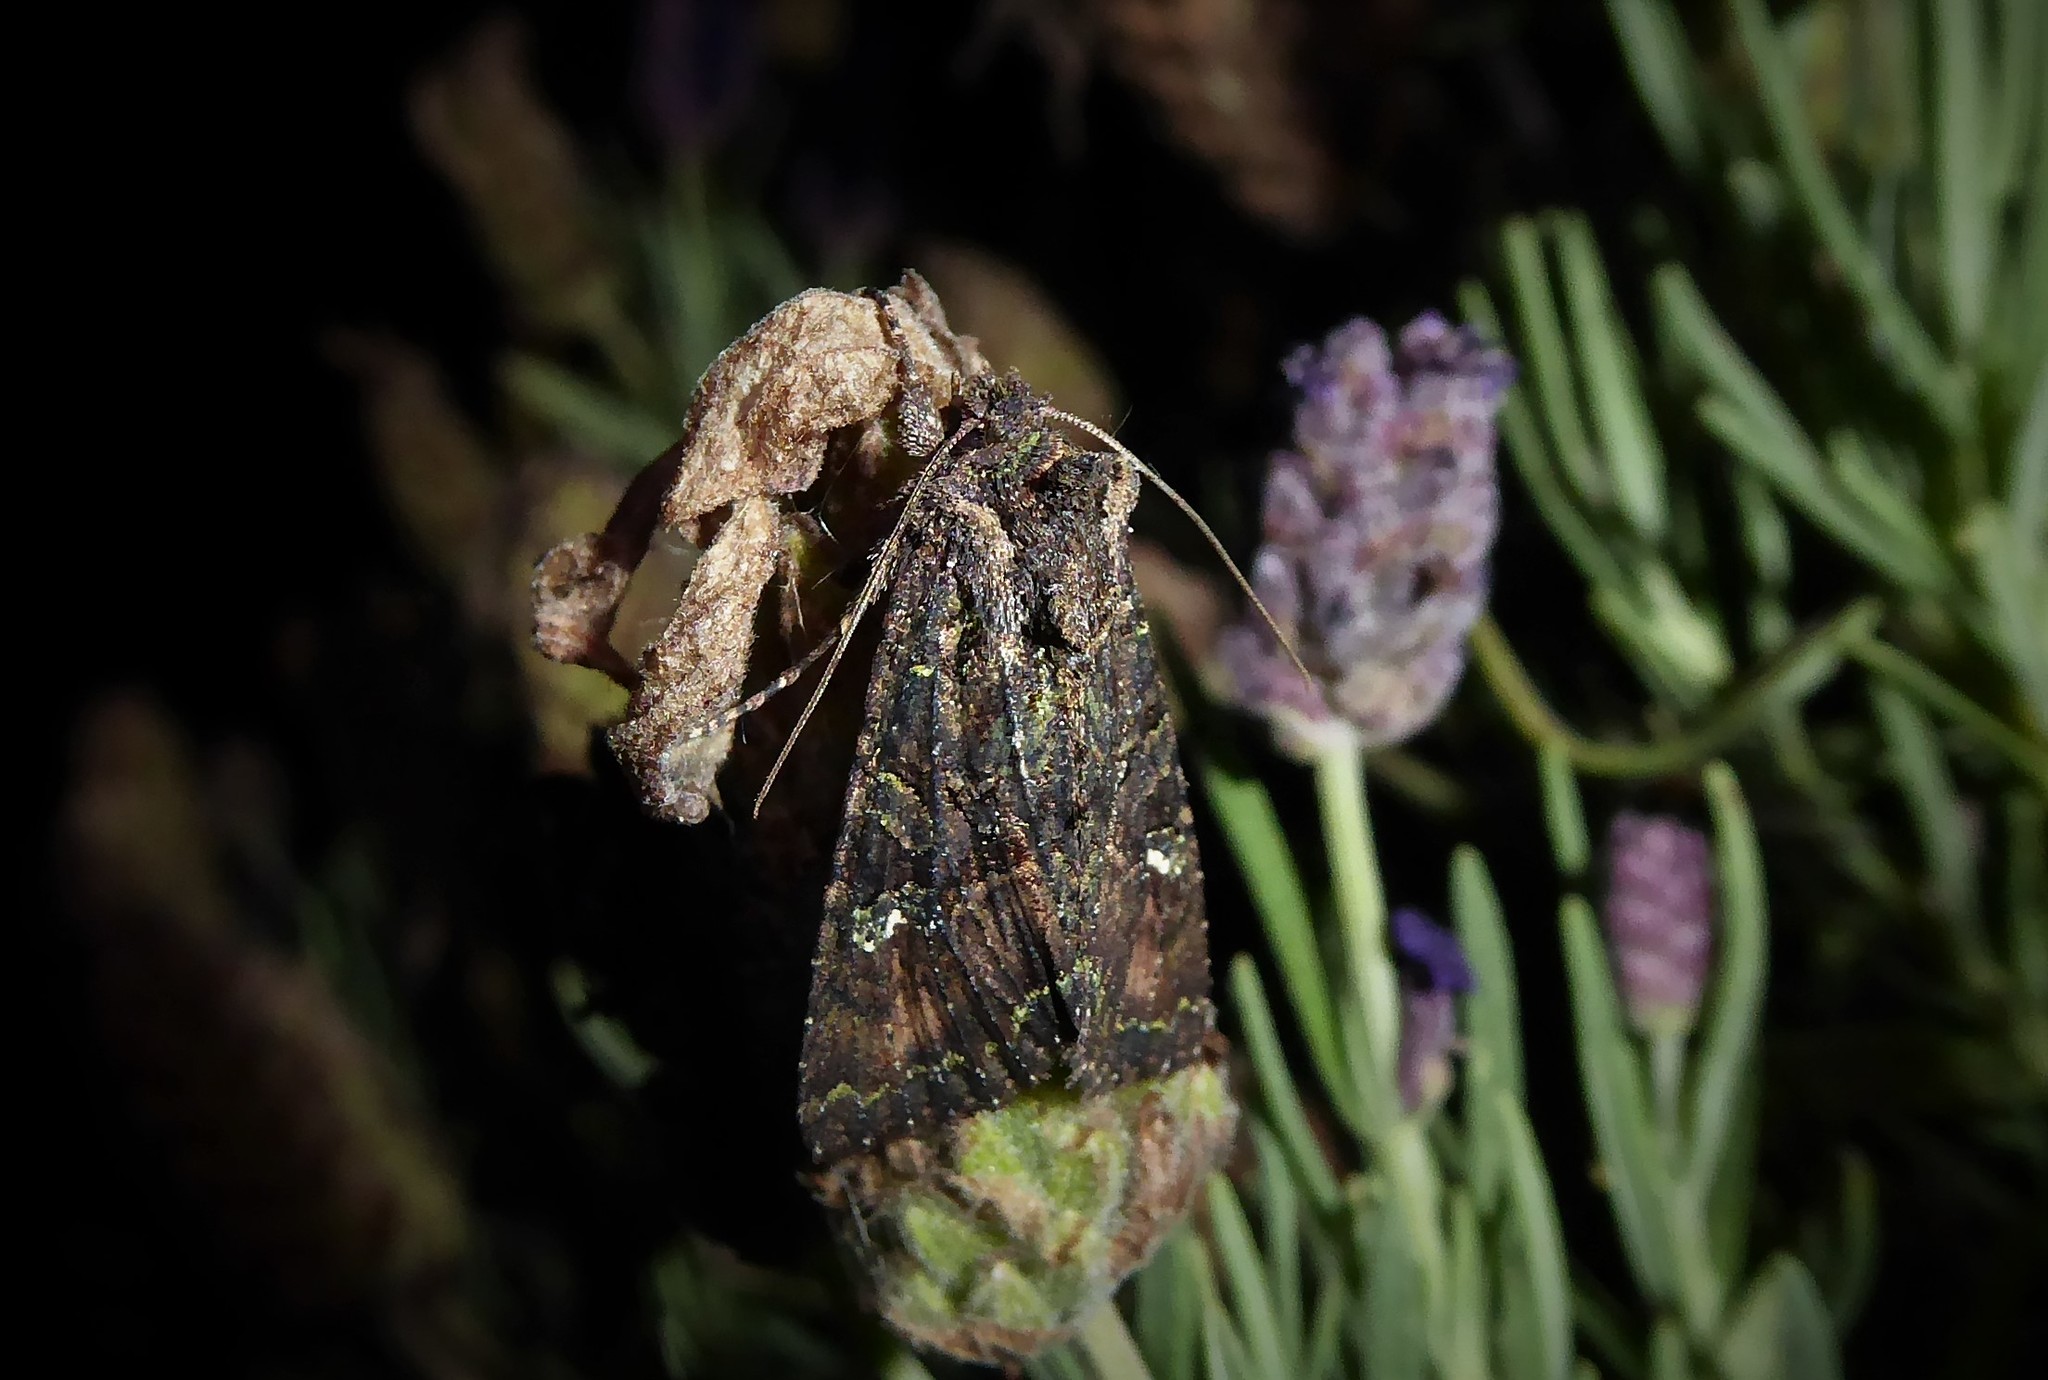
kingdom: Animalia
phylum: Arthropoda
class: Insecta
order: Lepidoptera
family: Noctuidae
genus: Meterana
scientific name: Meterana ochthistis
